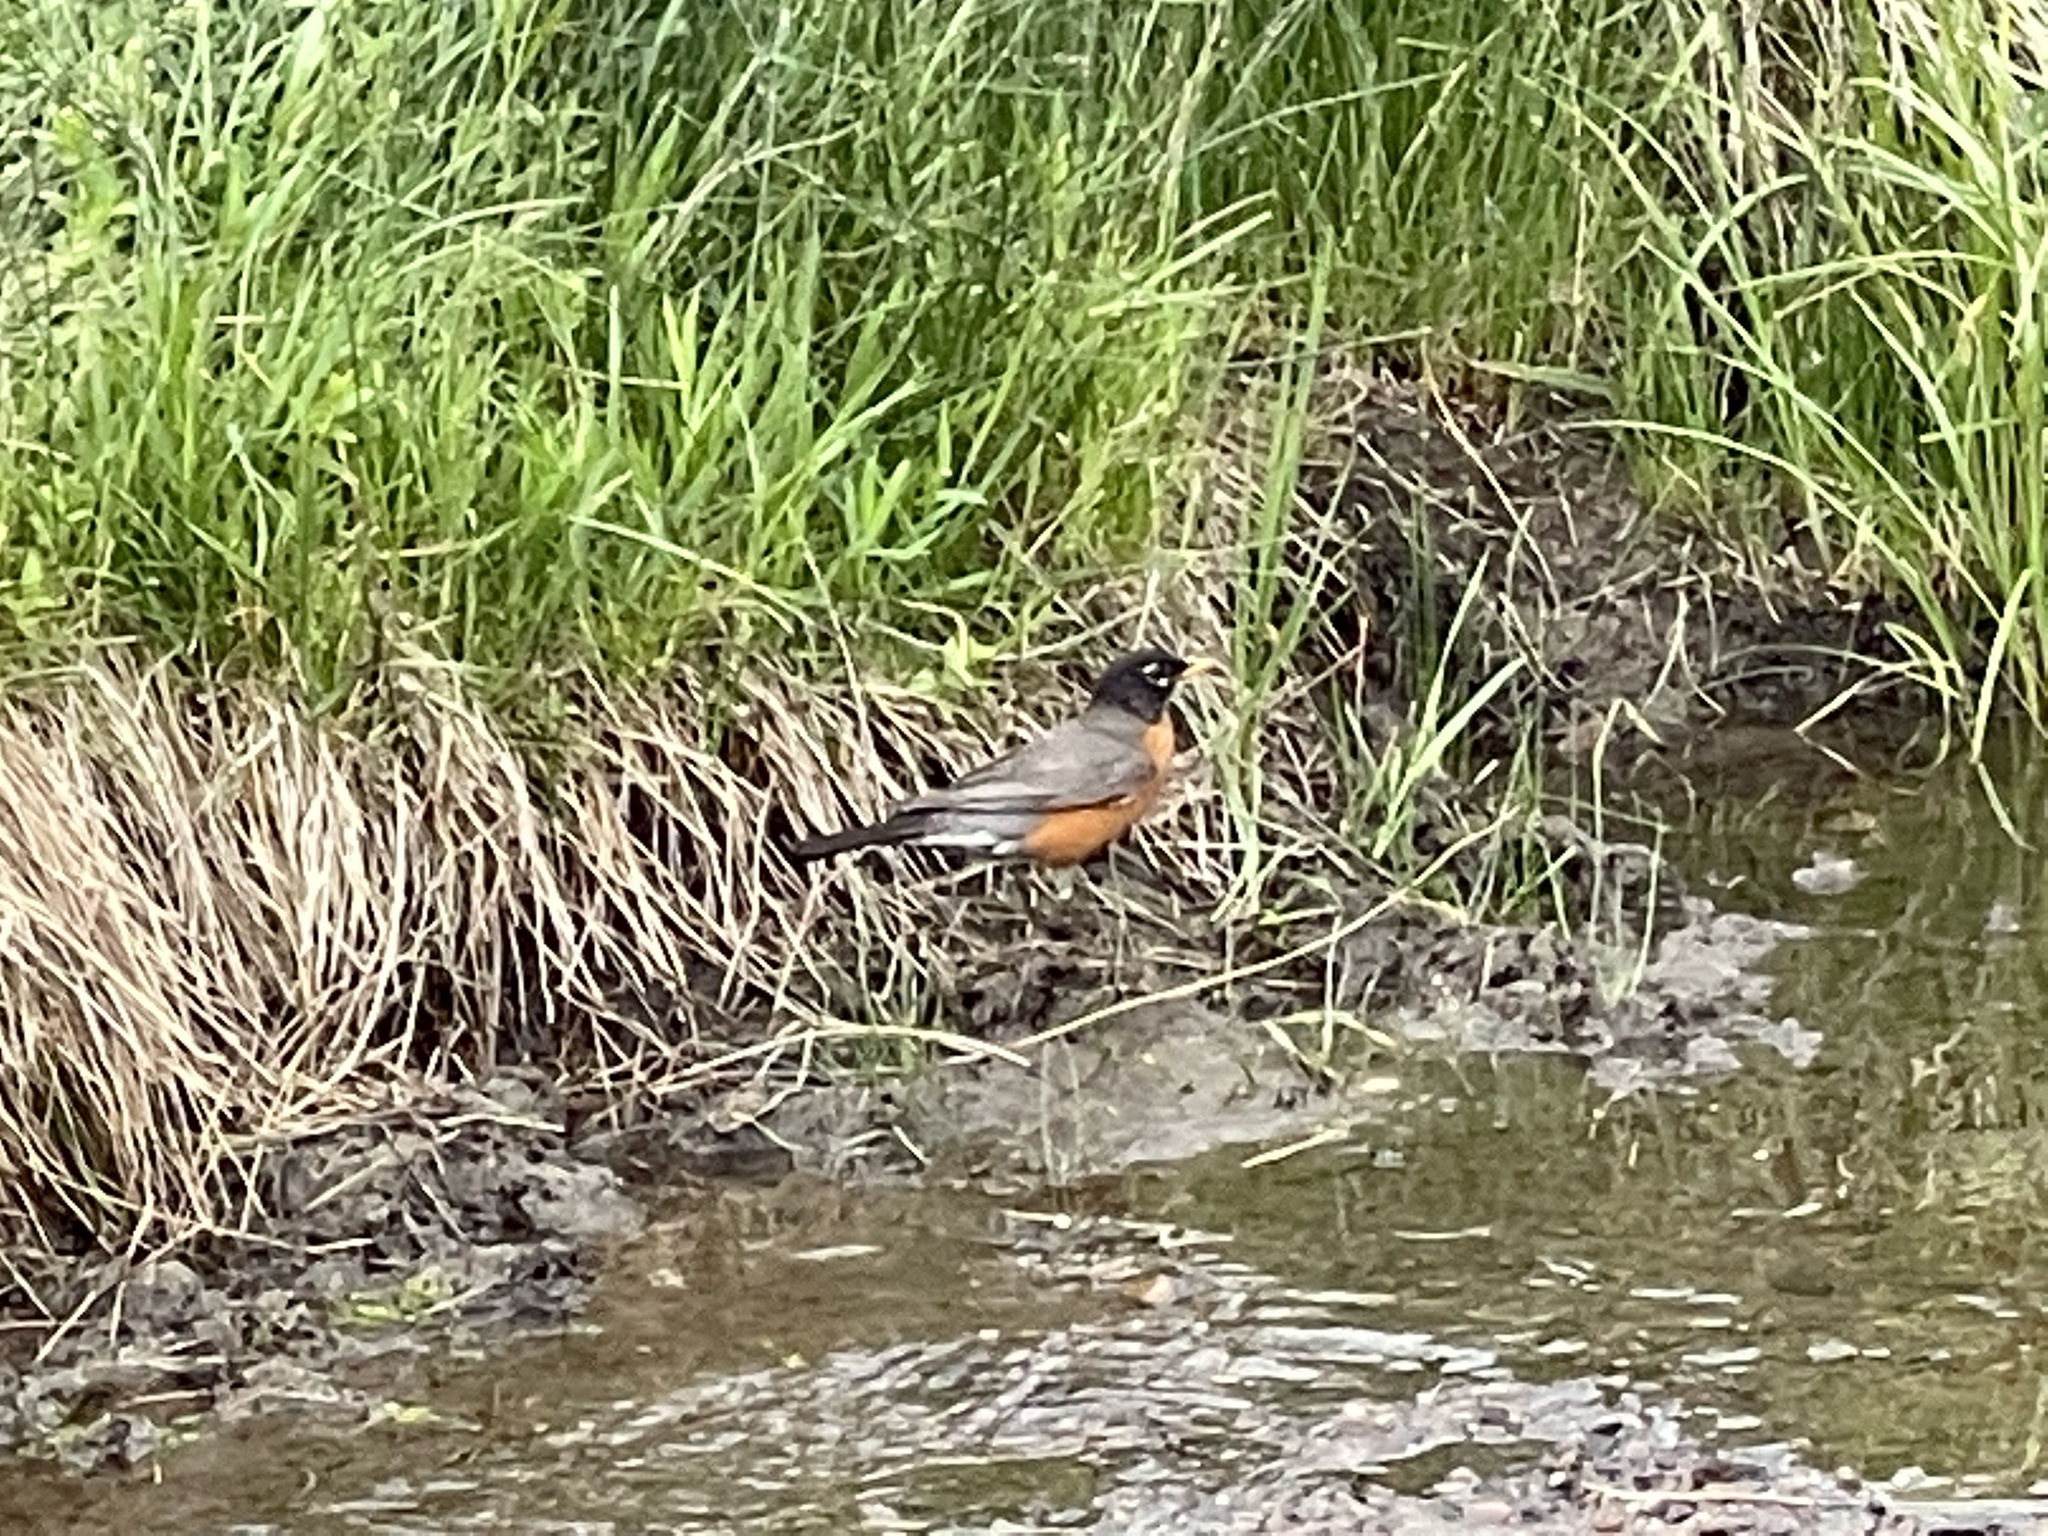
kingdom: Animalia
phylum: Chordata
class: Aves
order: Passeriformes
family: Turdidae
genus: Turdus
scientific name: Turdus migratorius
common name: American robin
